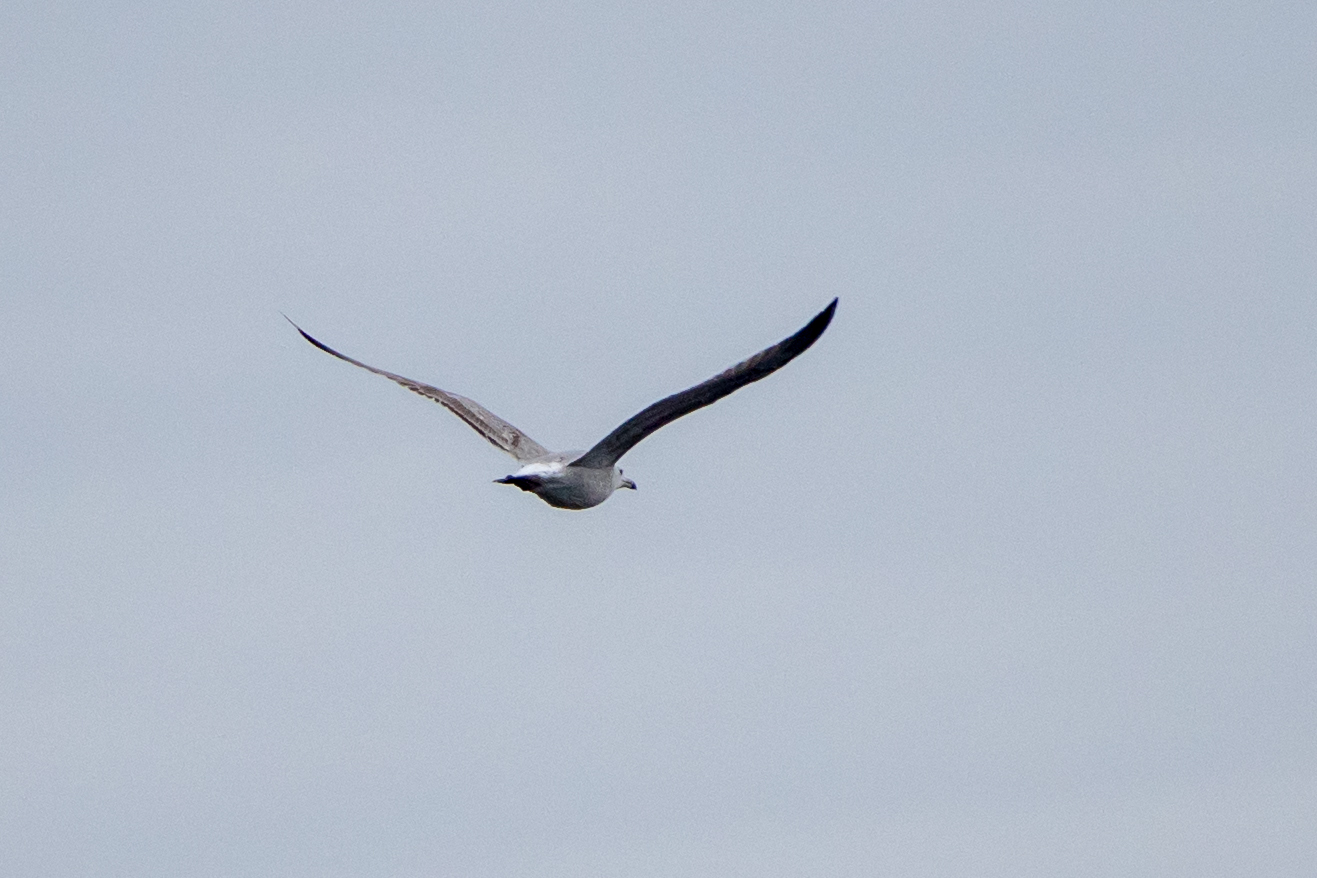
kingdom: Animalia
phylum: Chordata
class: Aves
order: Charadriiformes
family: Laridae
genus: Larus
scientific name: Larus cachinnans
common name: Caspian gull
